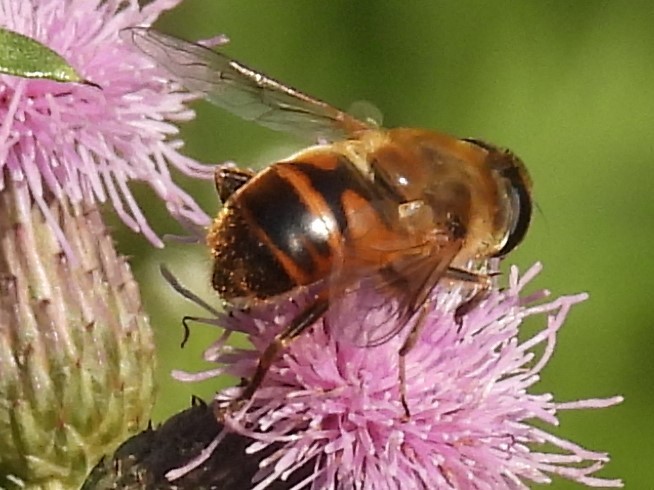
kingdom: Animalia
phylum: Arthropoda
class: Insecta
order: Diptera
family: Syrphidae
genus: Eristalis
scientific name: Eristalis tenax
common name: Drone fly
